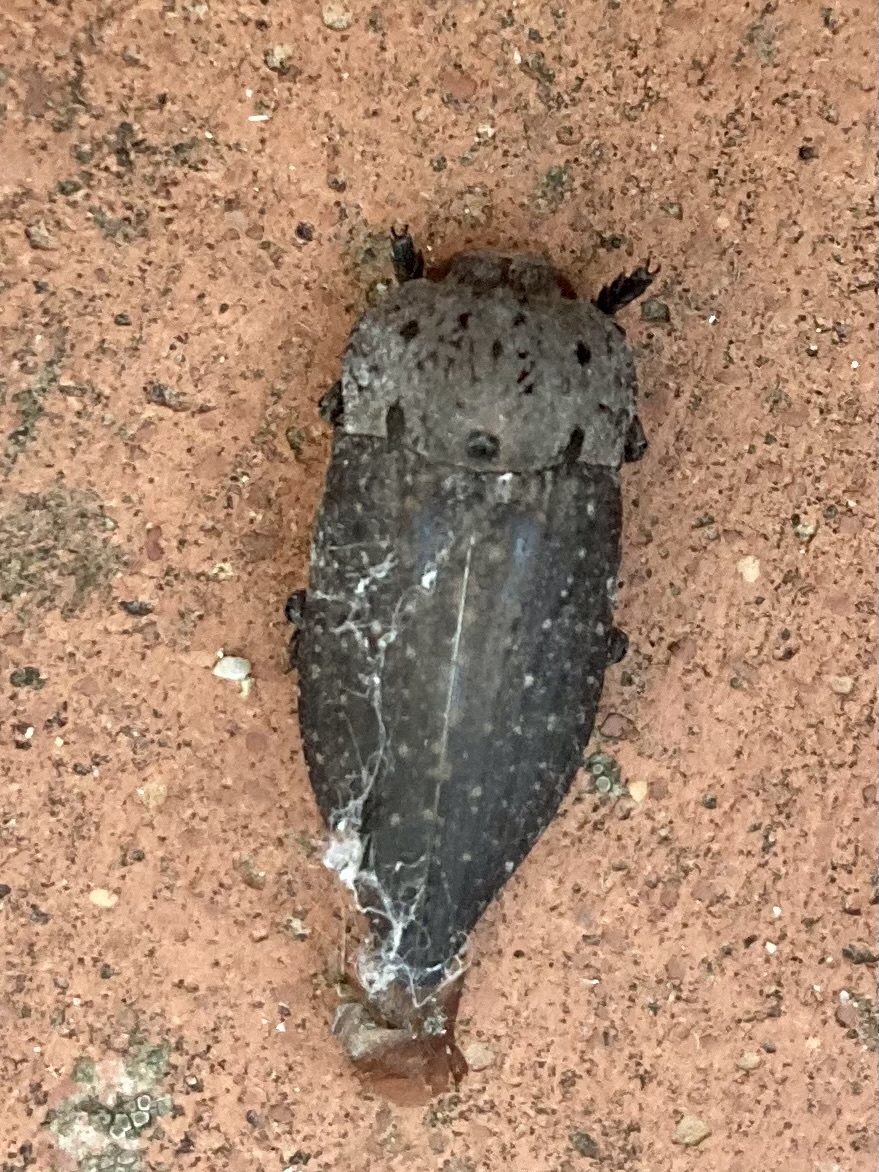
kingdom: Animalia
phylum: Arthropoda
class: Insecta
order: Coleoptera
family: Buprestidae
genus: Capnodis
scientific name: Capnodis tenebricosa
